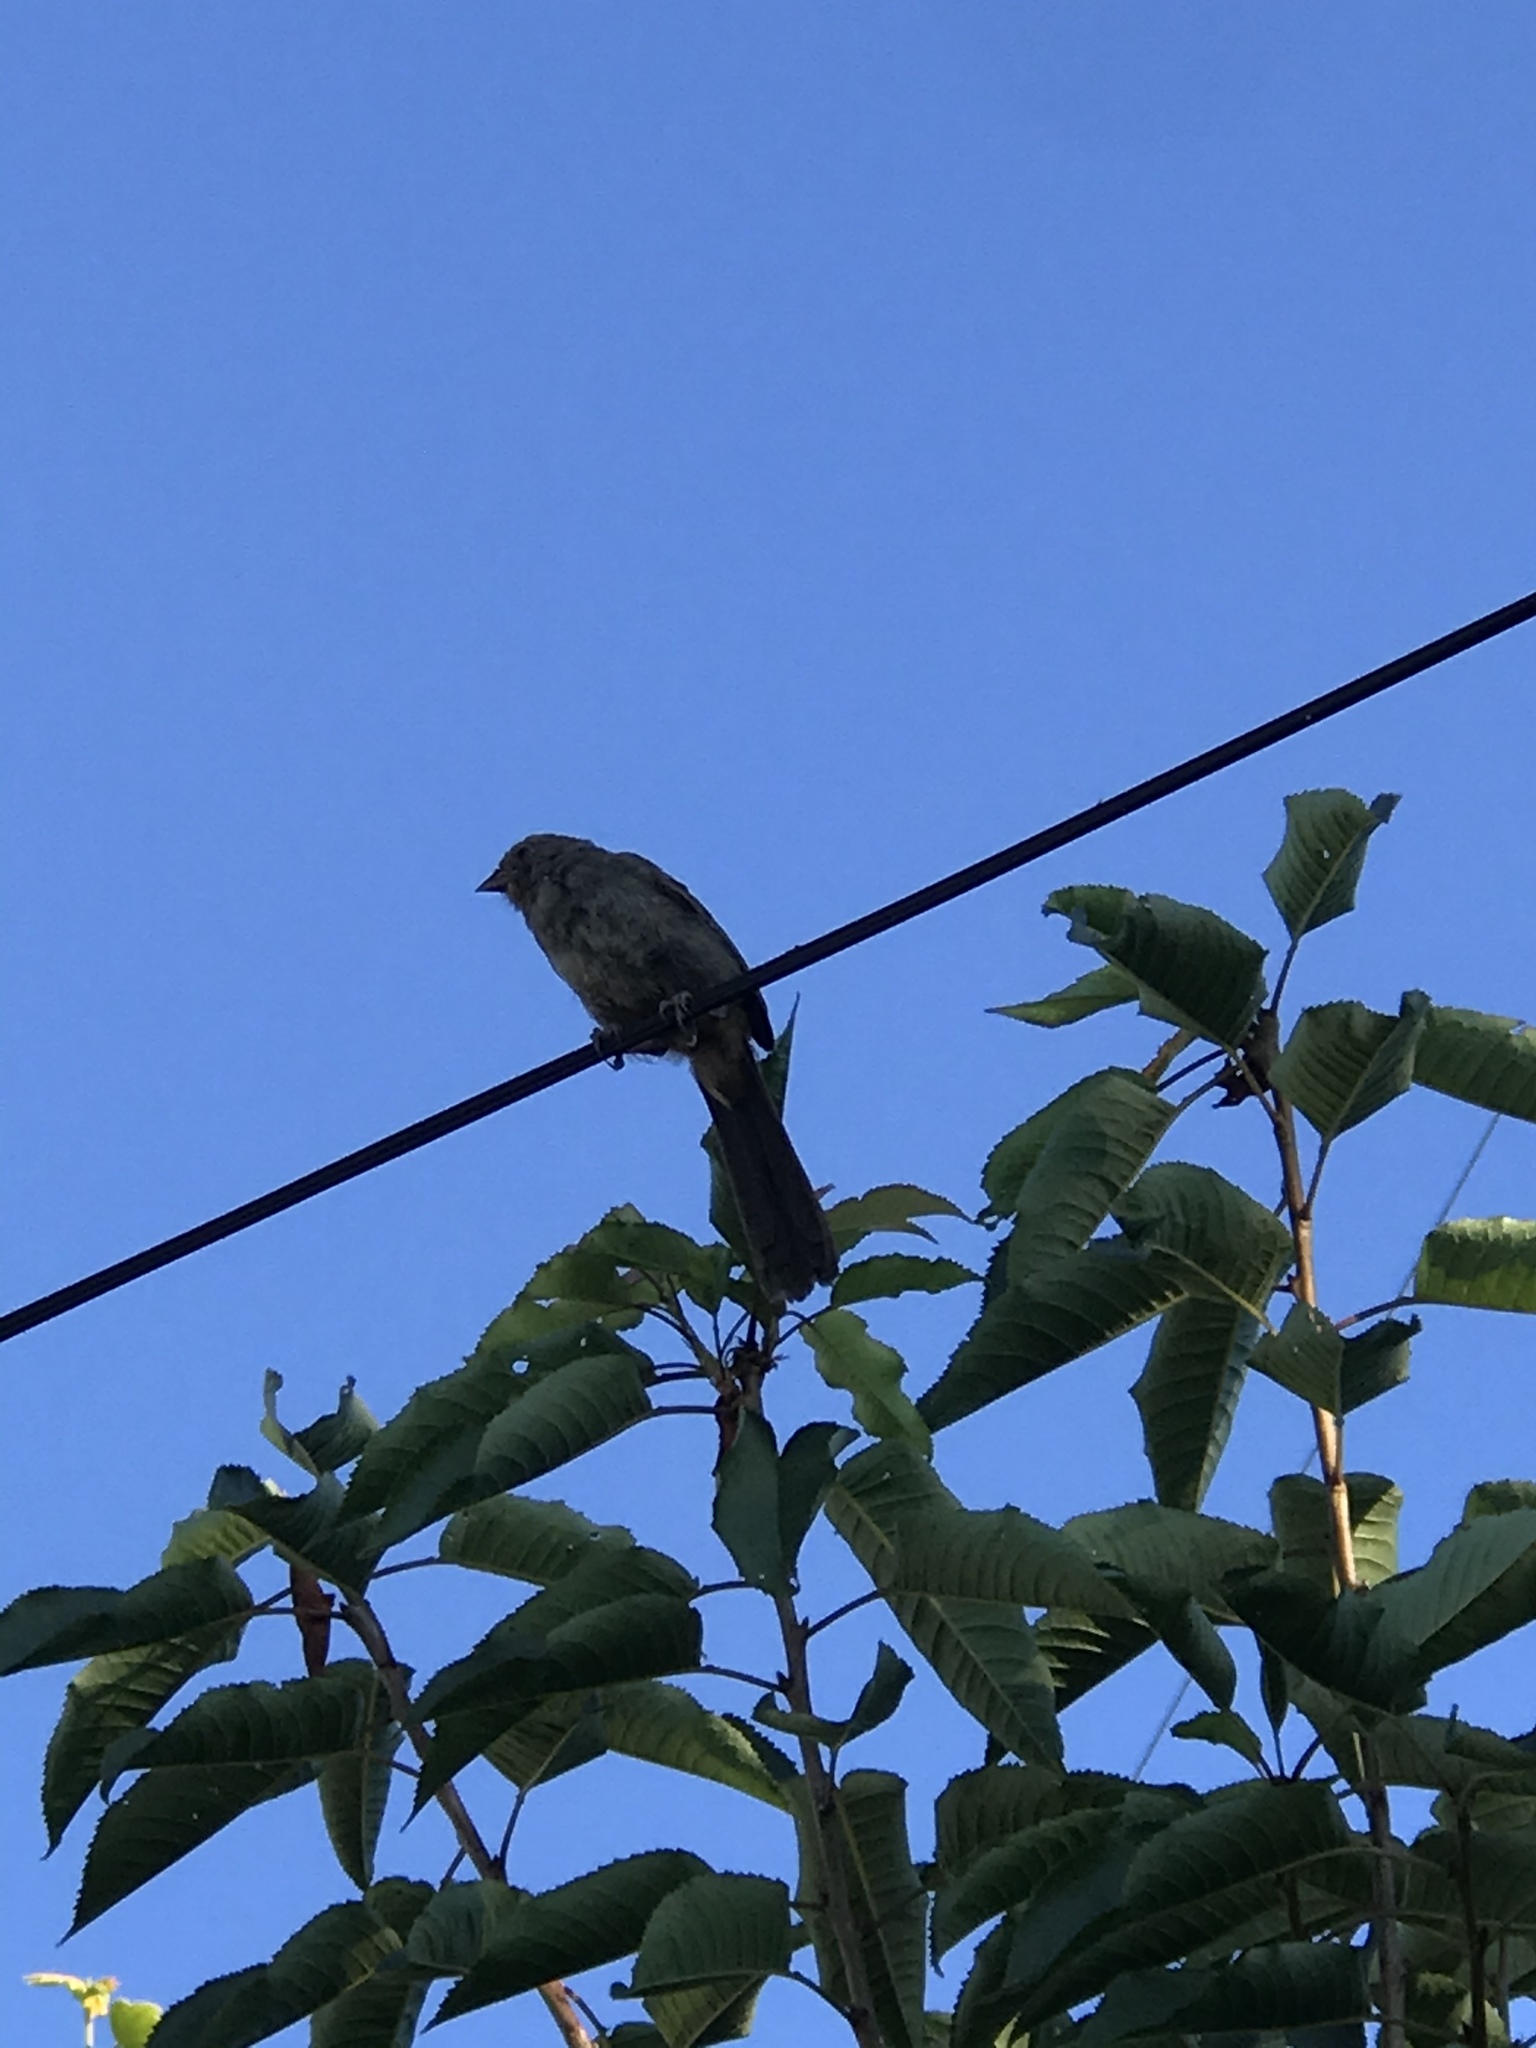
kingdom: Animalia
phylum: Chordata
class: Aves
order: Passeriformes
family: Passerellidae
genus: Melozone
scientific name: Melozone crissalis
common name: California towhee
